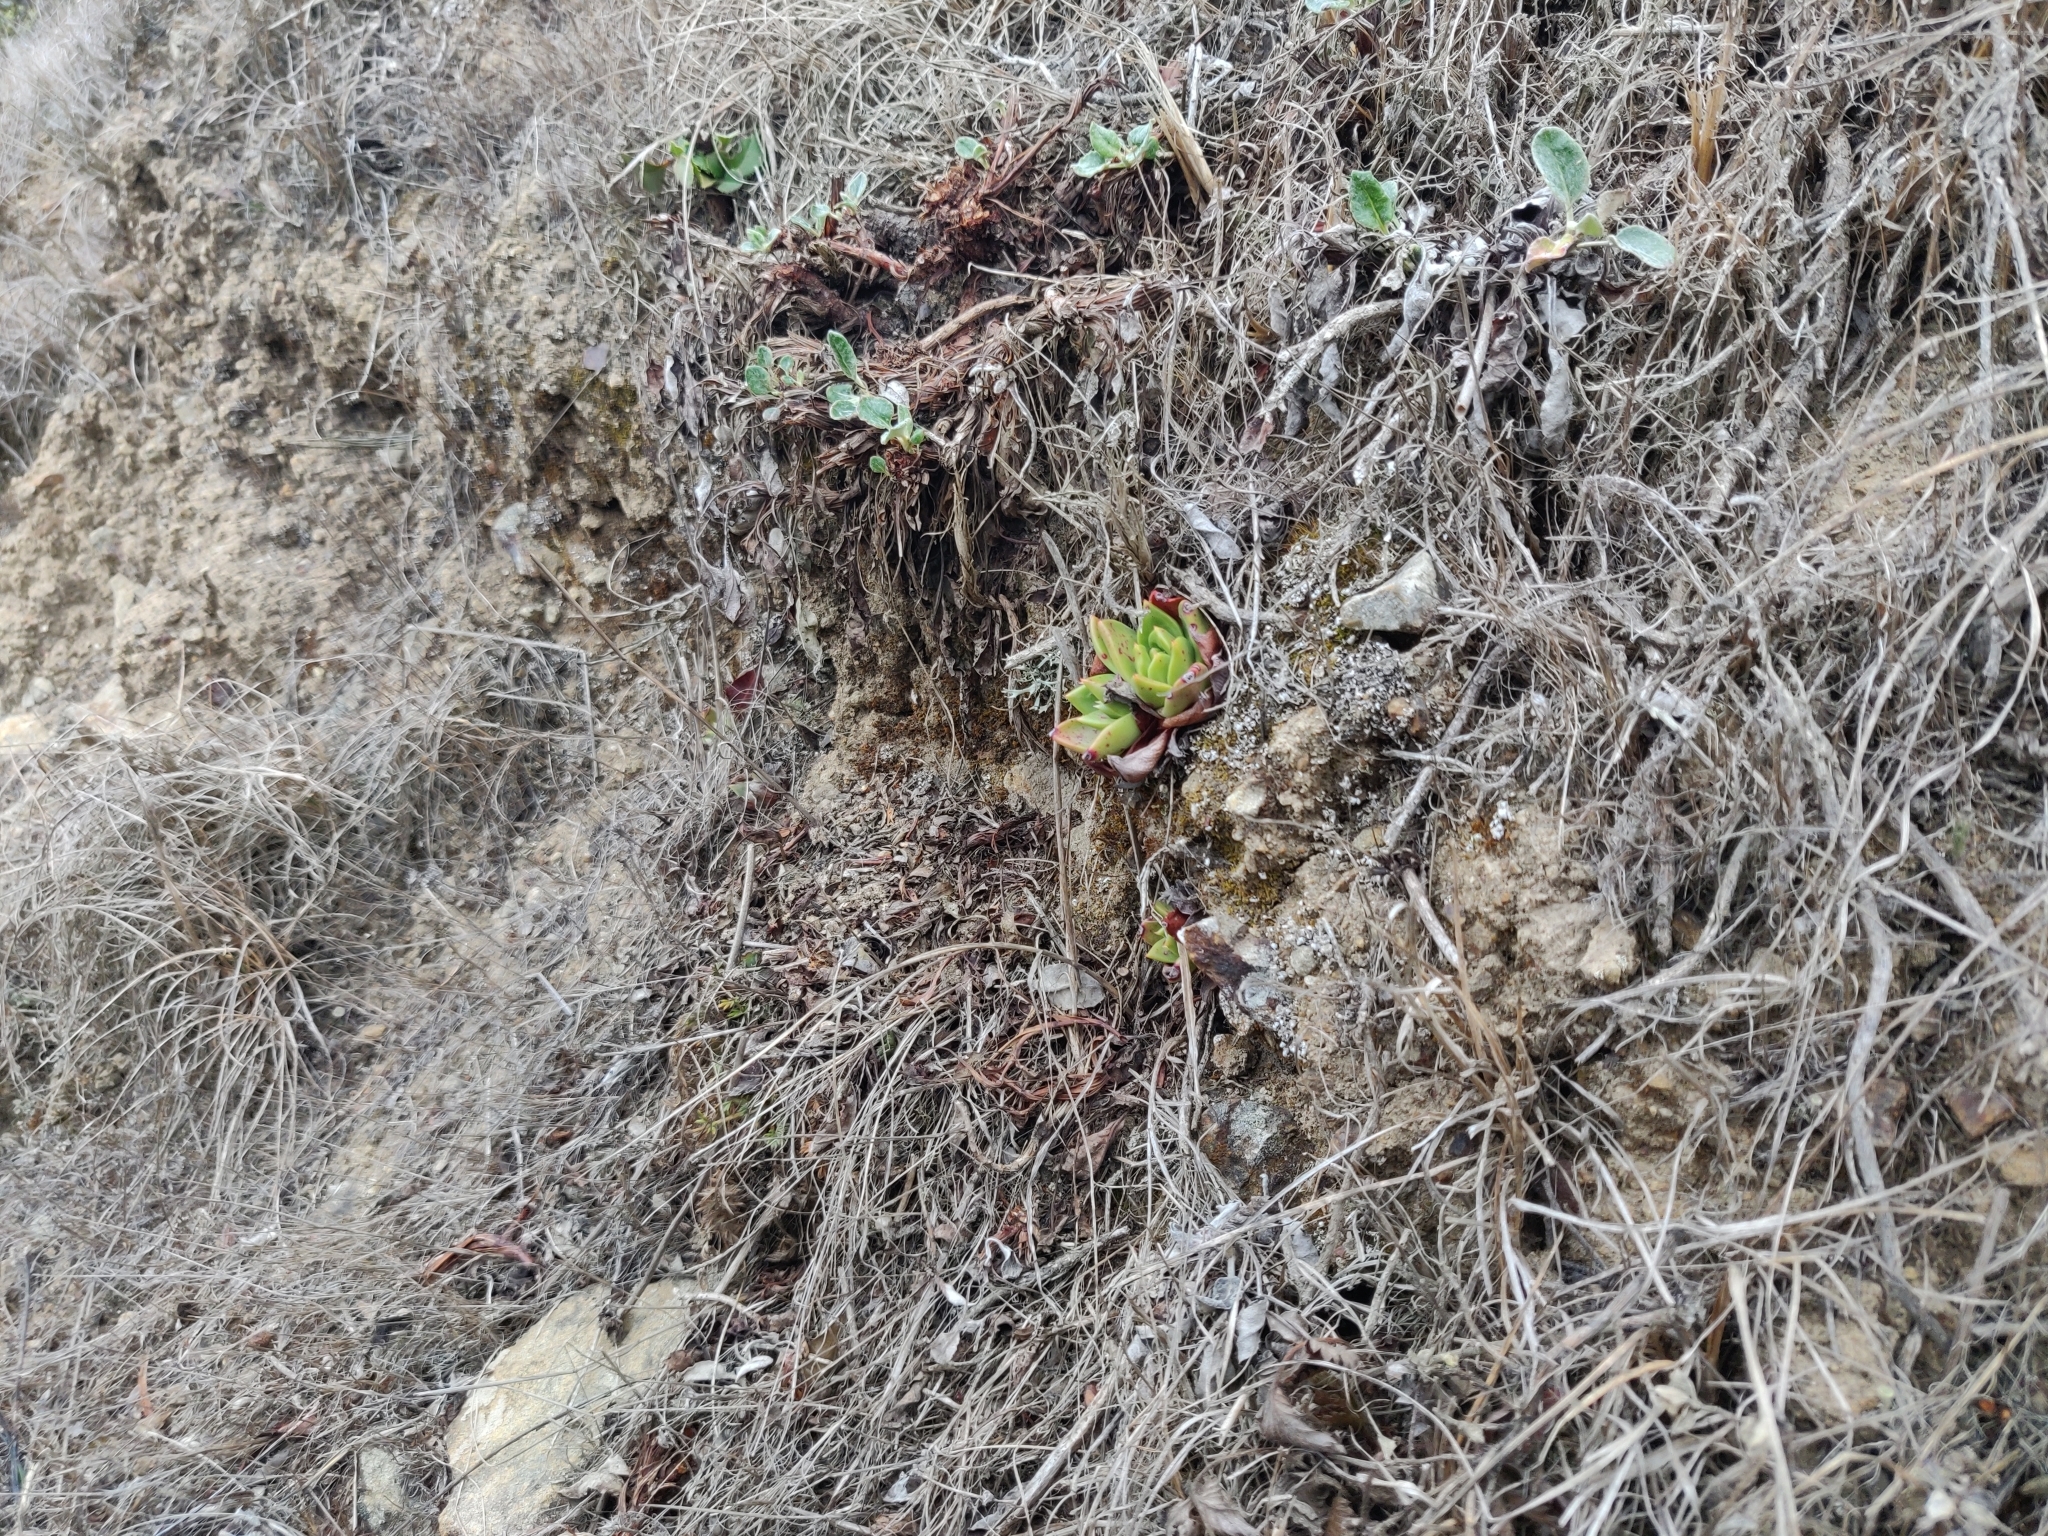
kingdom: Plantae
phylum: Tracheophyta
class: Magnoliopsida
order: Saxifragales
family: Crassulaceae
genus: Dudleya
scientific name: Dudleya farinosa
